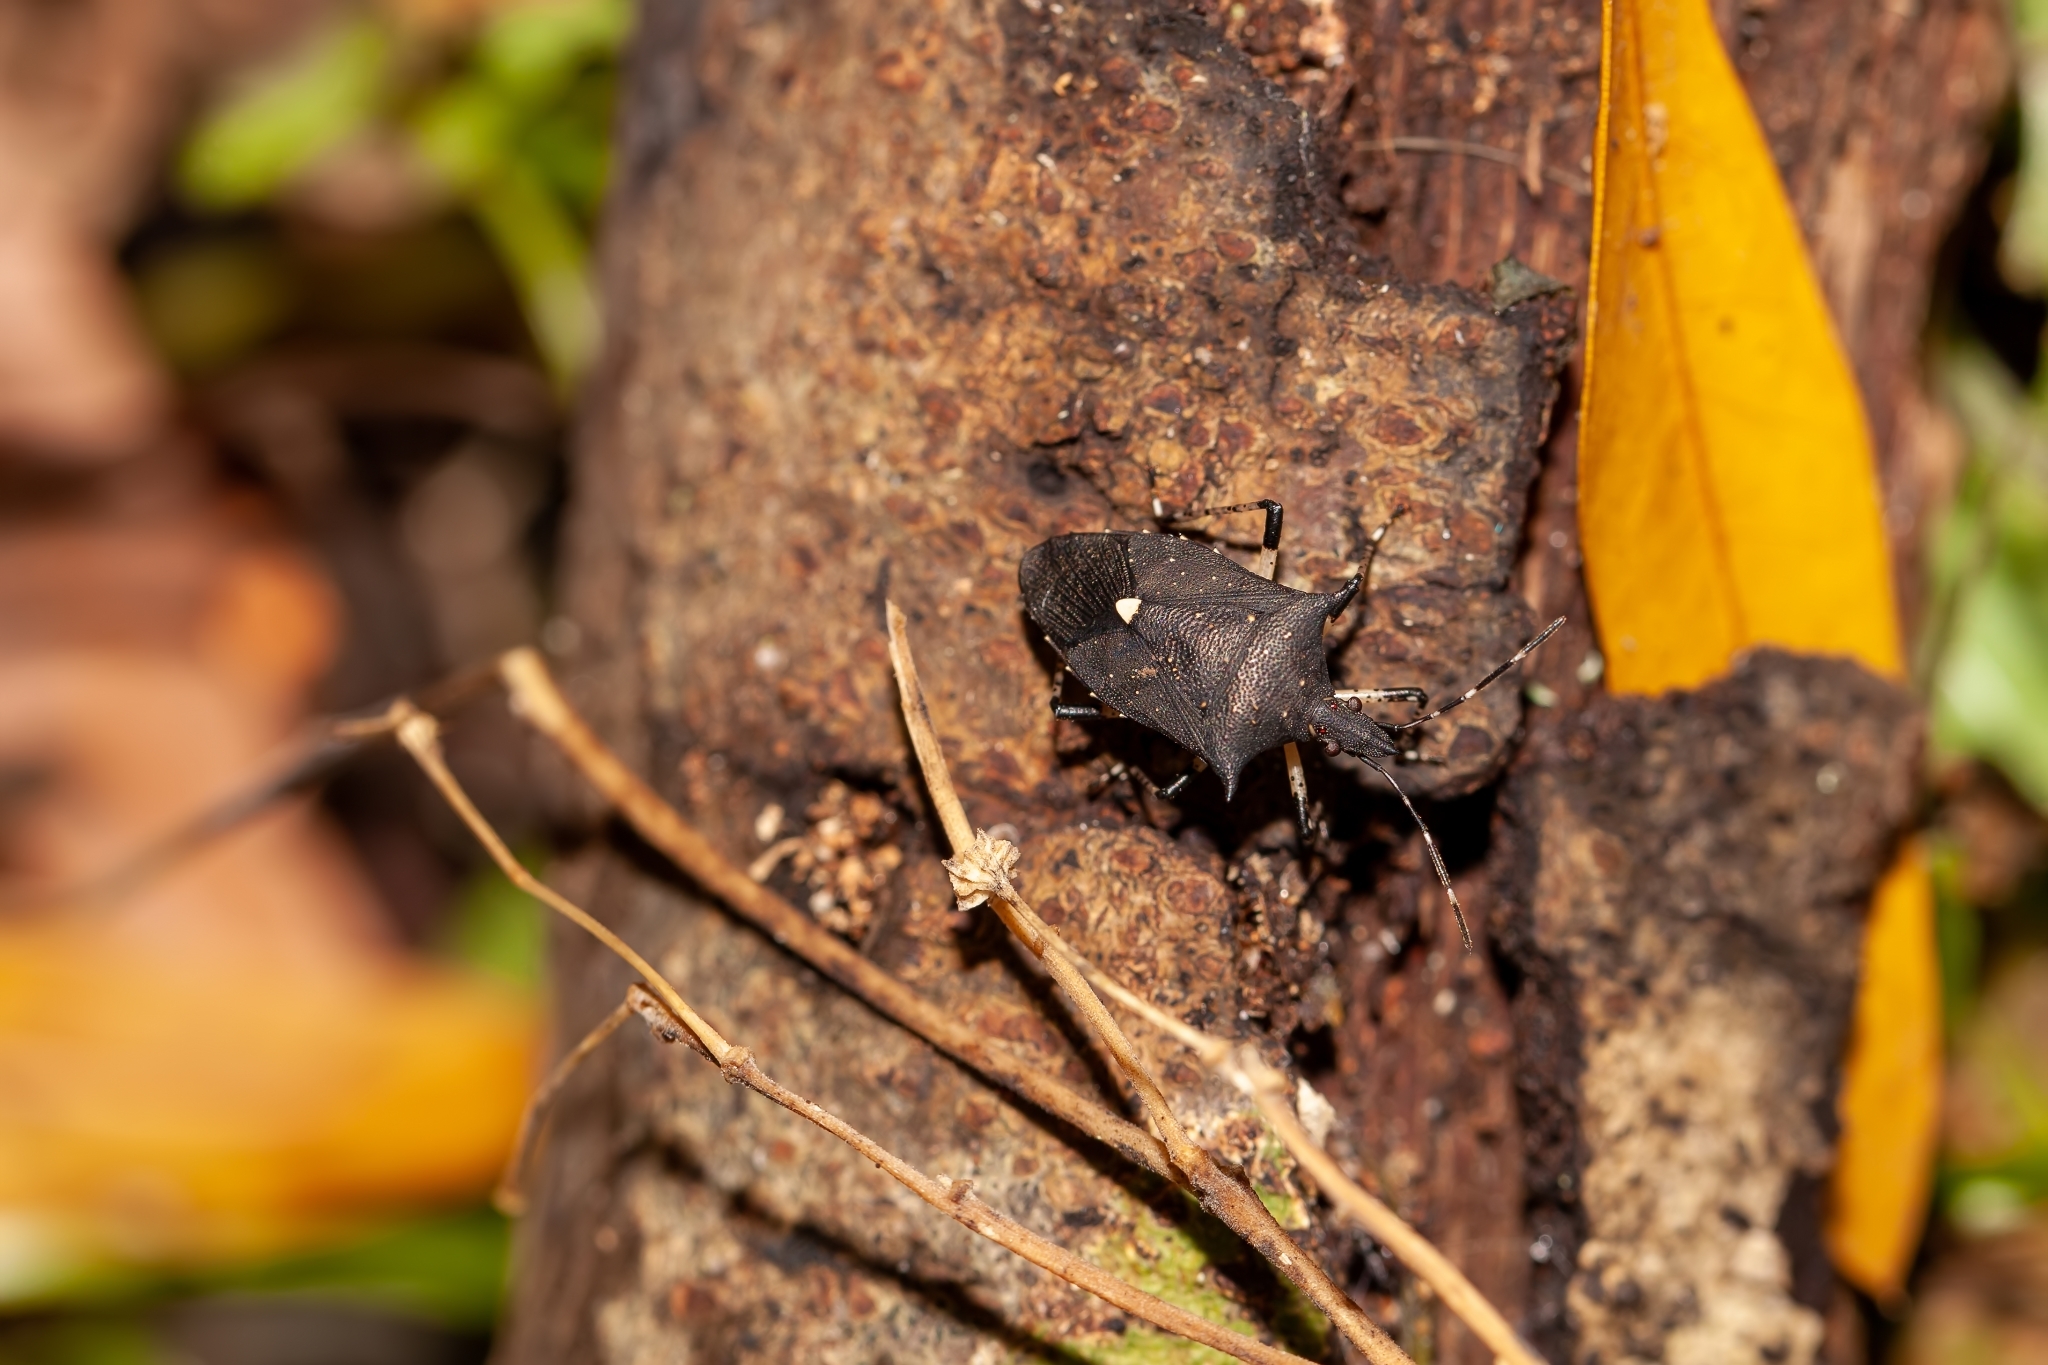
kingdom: Animalia
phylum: Arthropoda
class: Insecta
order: Hemiptera
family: Pentatomidae
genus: Proxys
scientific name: Proxys punctulatus
